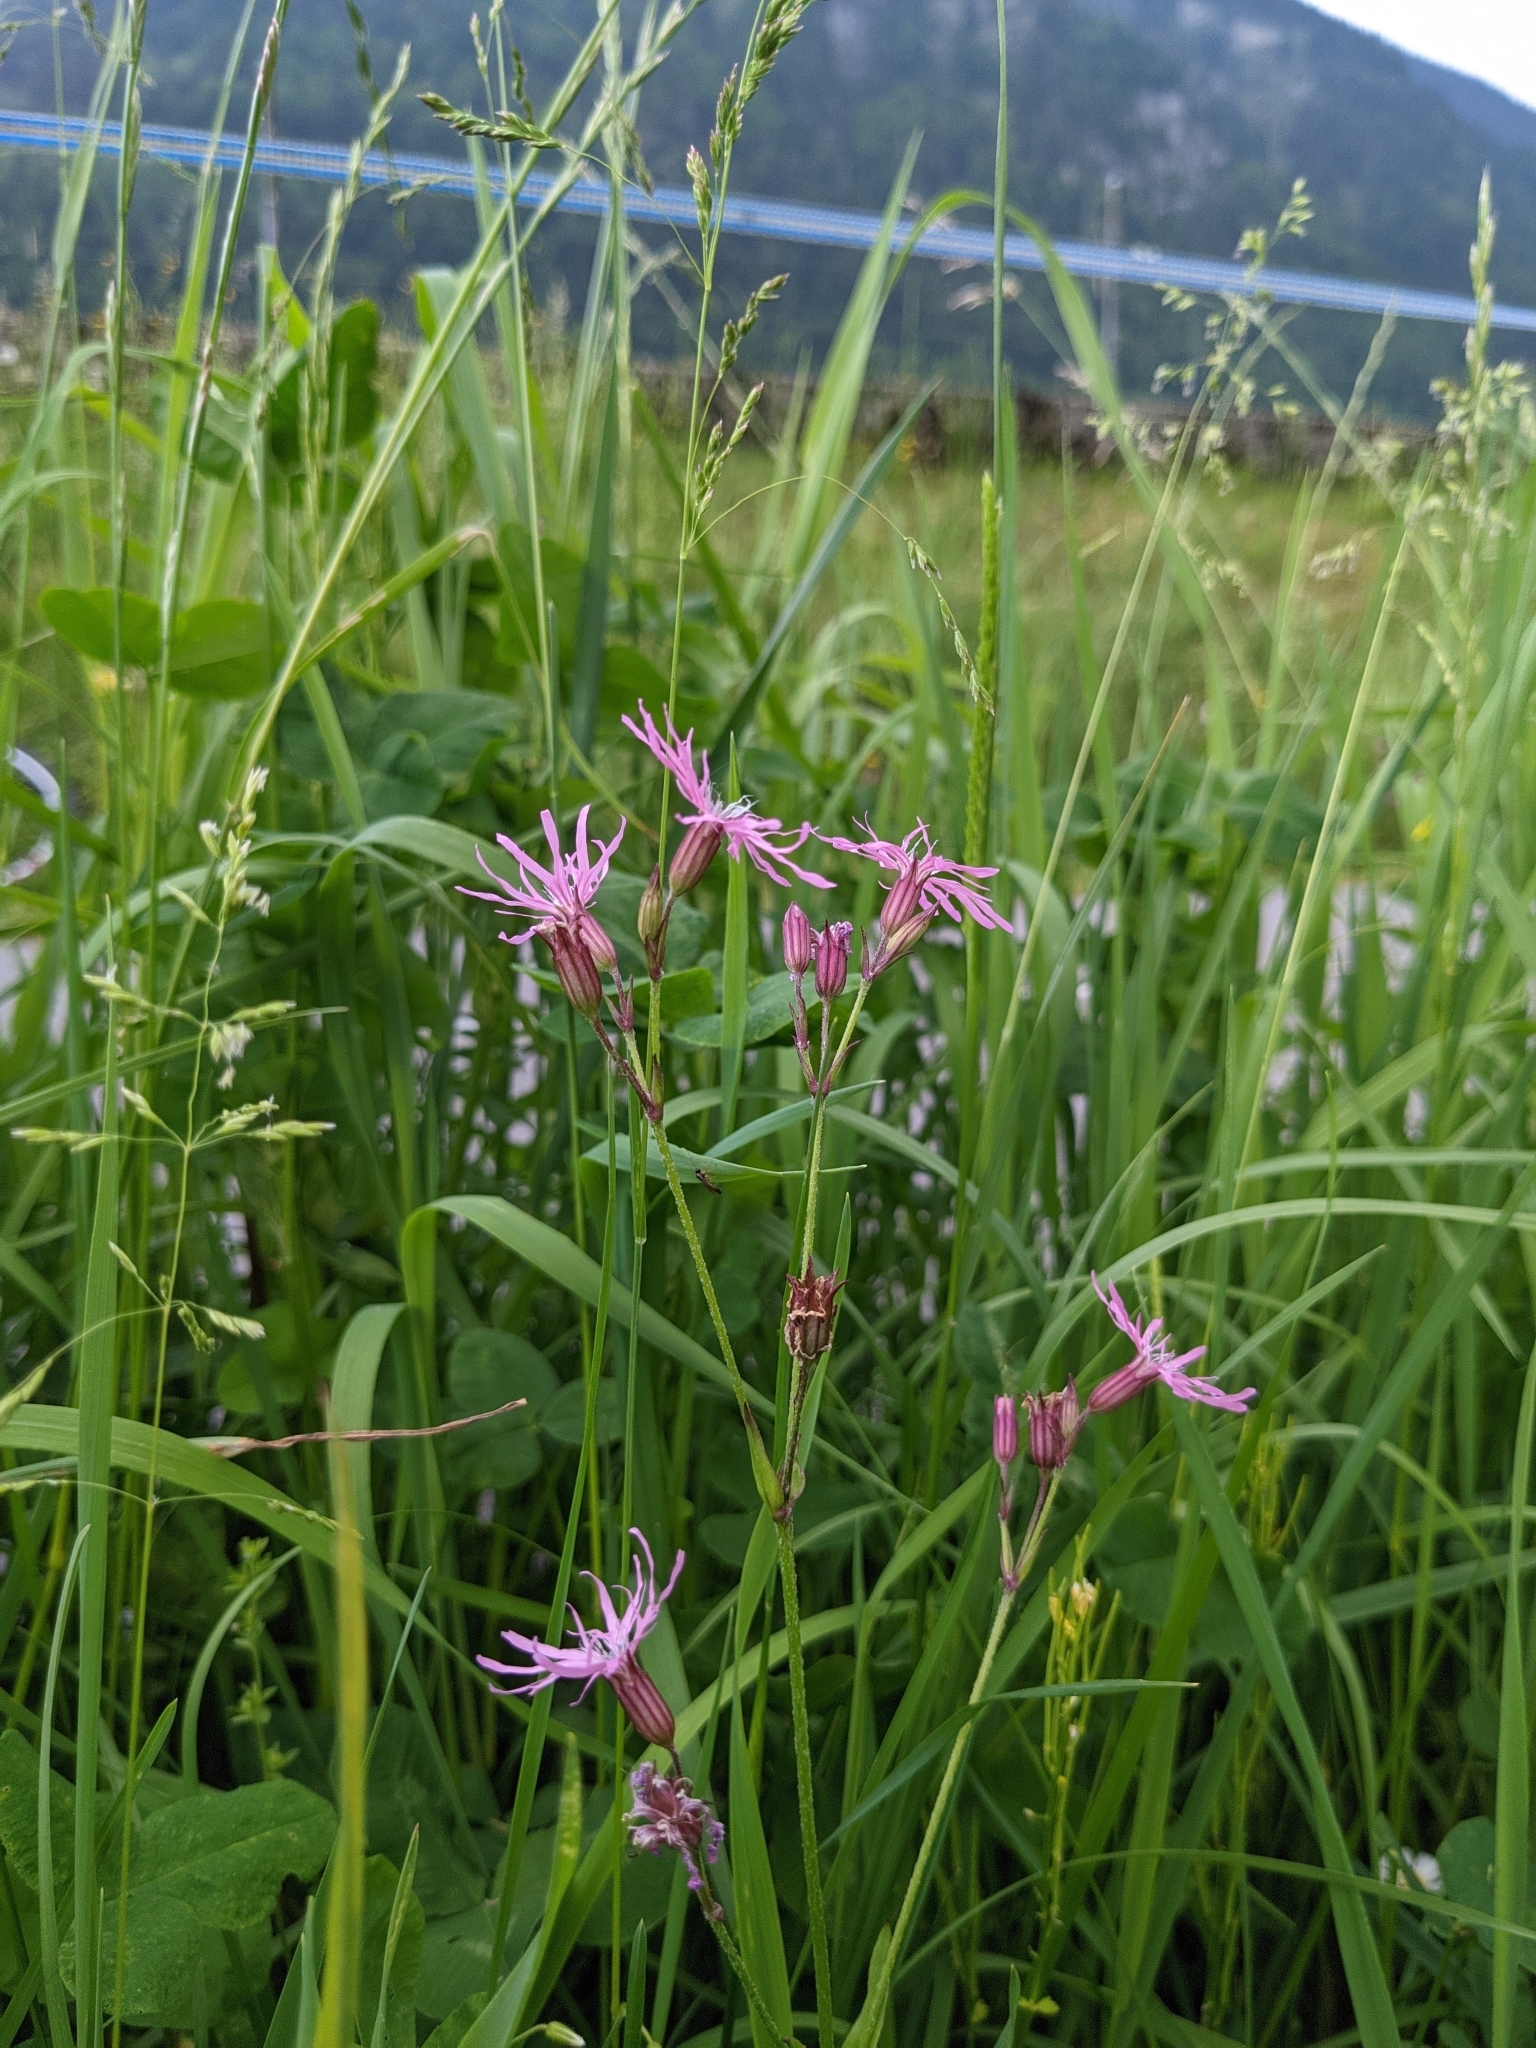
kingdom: Plantae
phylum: Tracheophyta
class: Magnoliopsida
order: Caryophyllales
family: Caryophyllaceae
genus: Silene
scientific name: Silene flos-cuculi
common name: Ragged-robin
